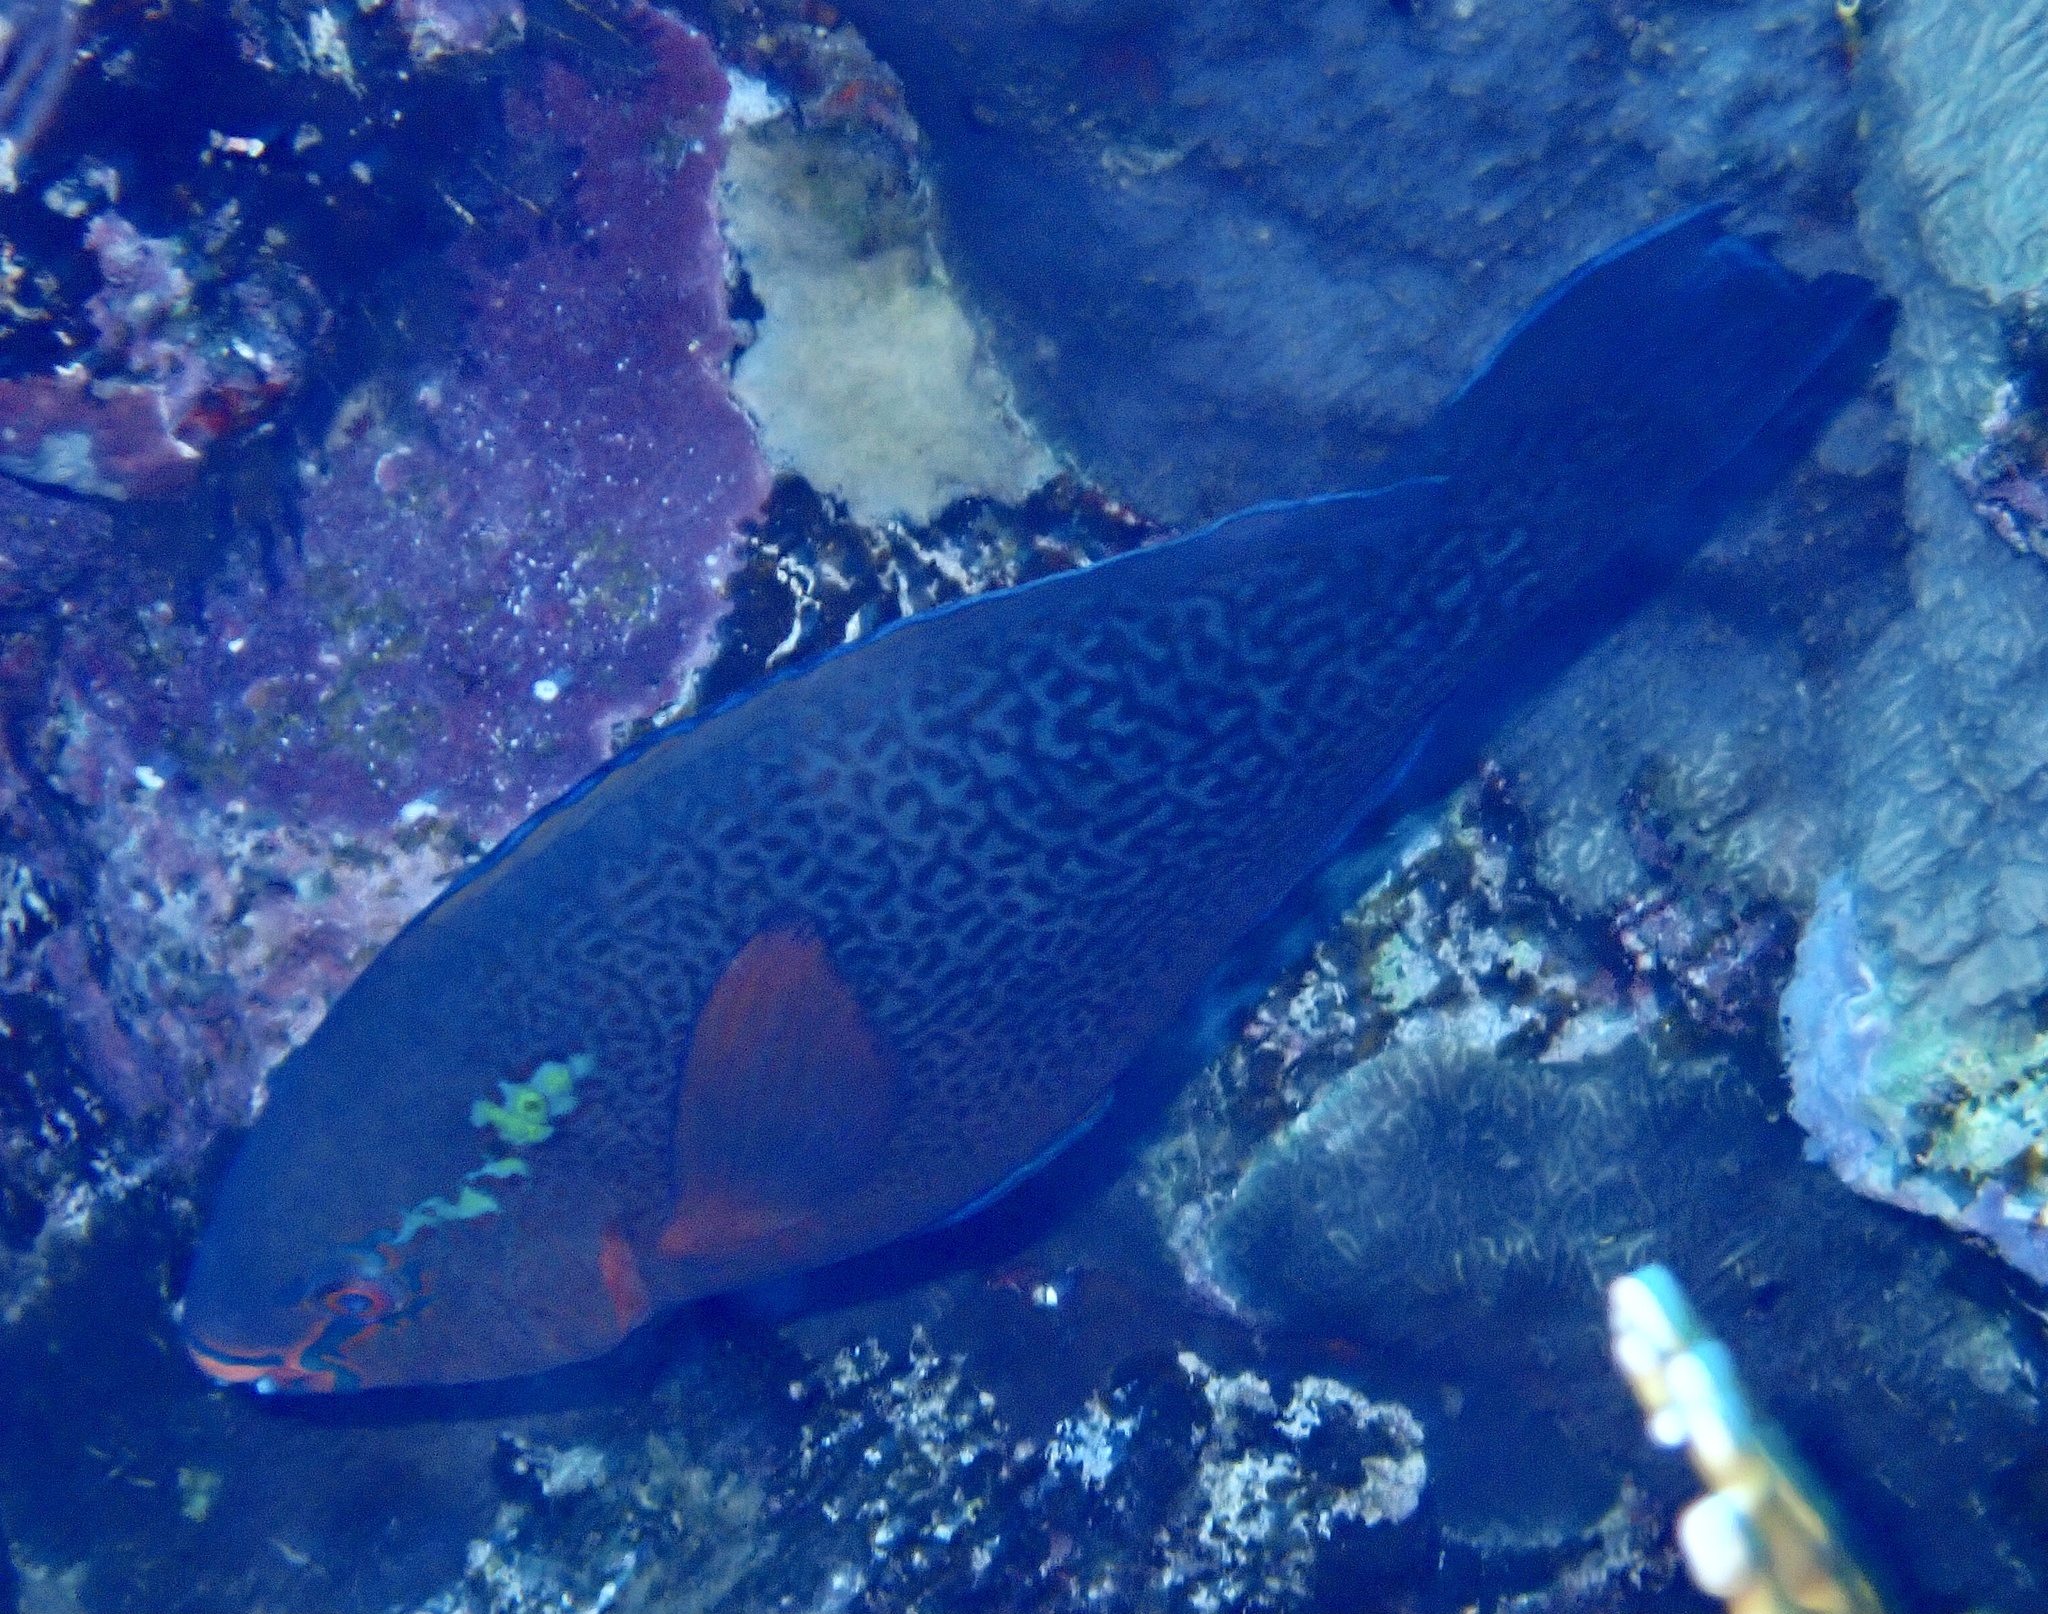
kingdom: Animalia
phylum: Chordata
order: Perciformes
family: Scaridae
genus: Scarus
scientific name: Scarus niger
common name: Dusky parrotfish
